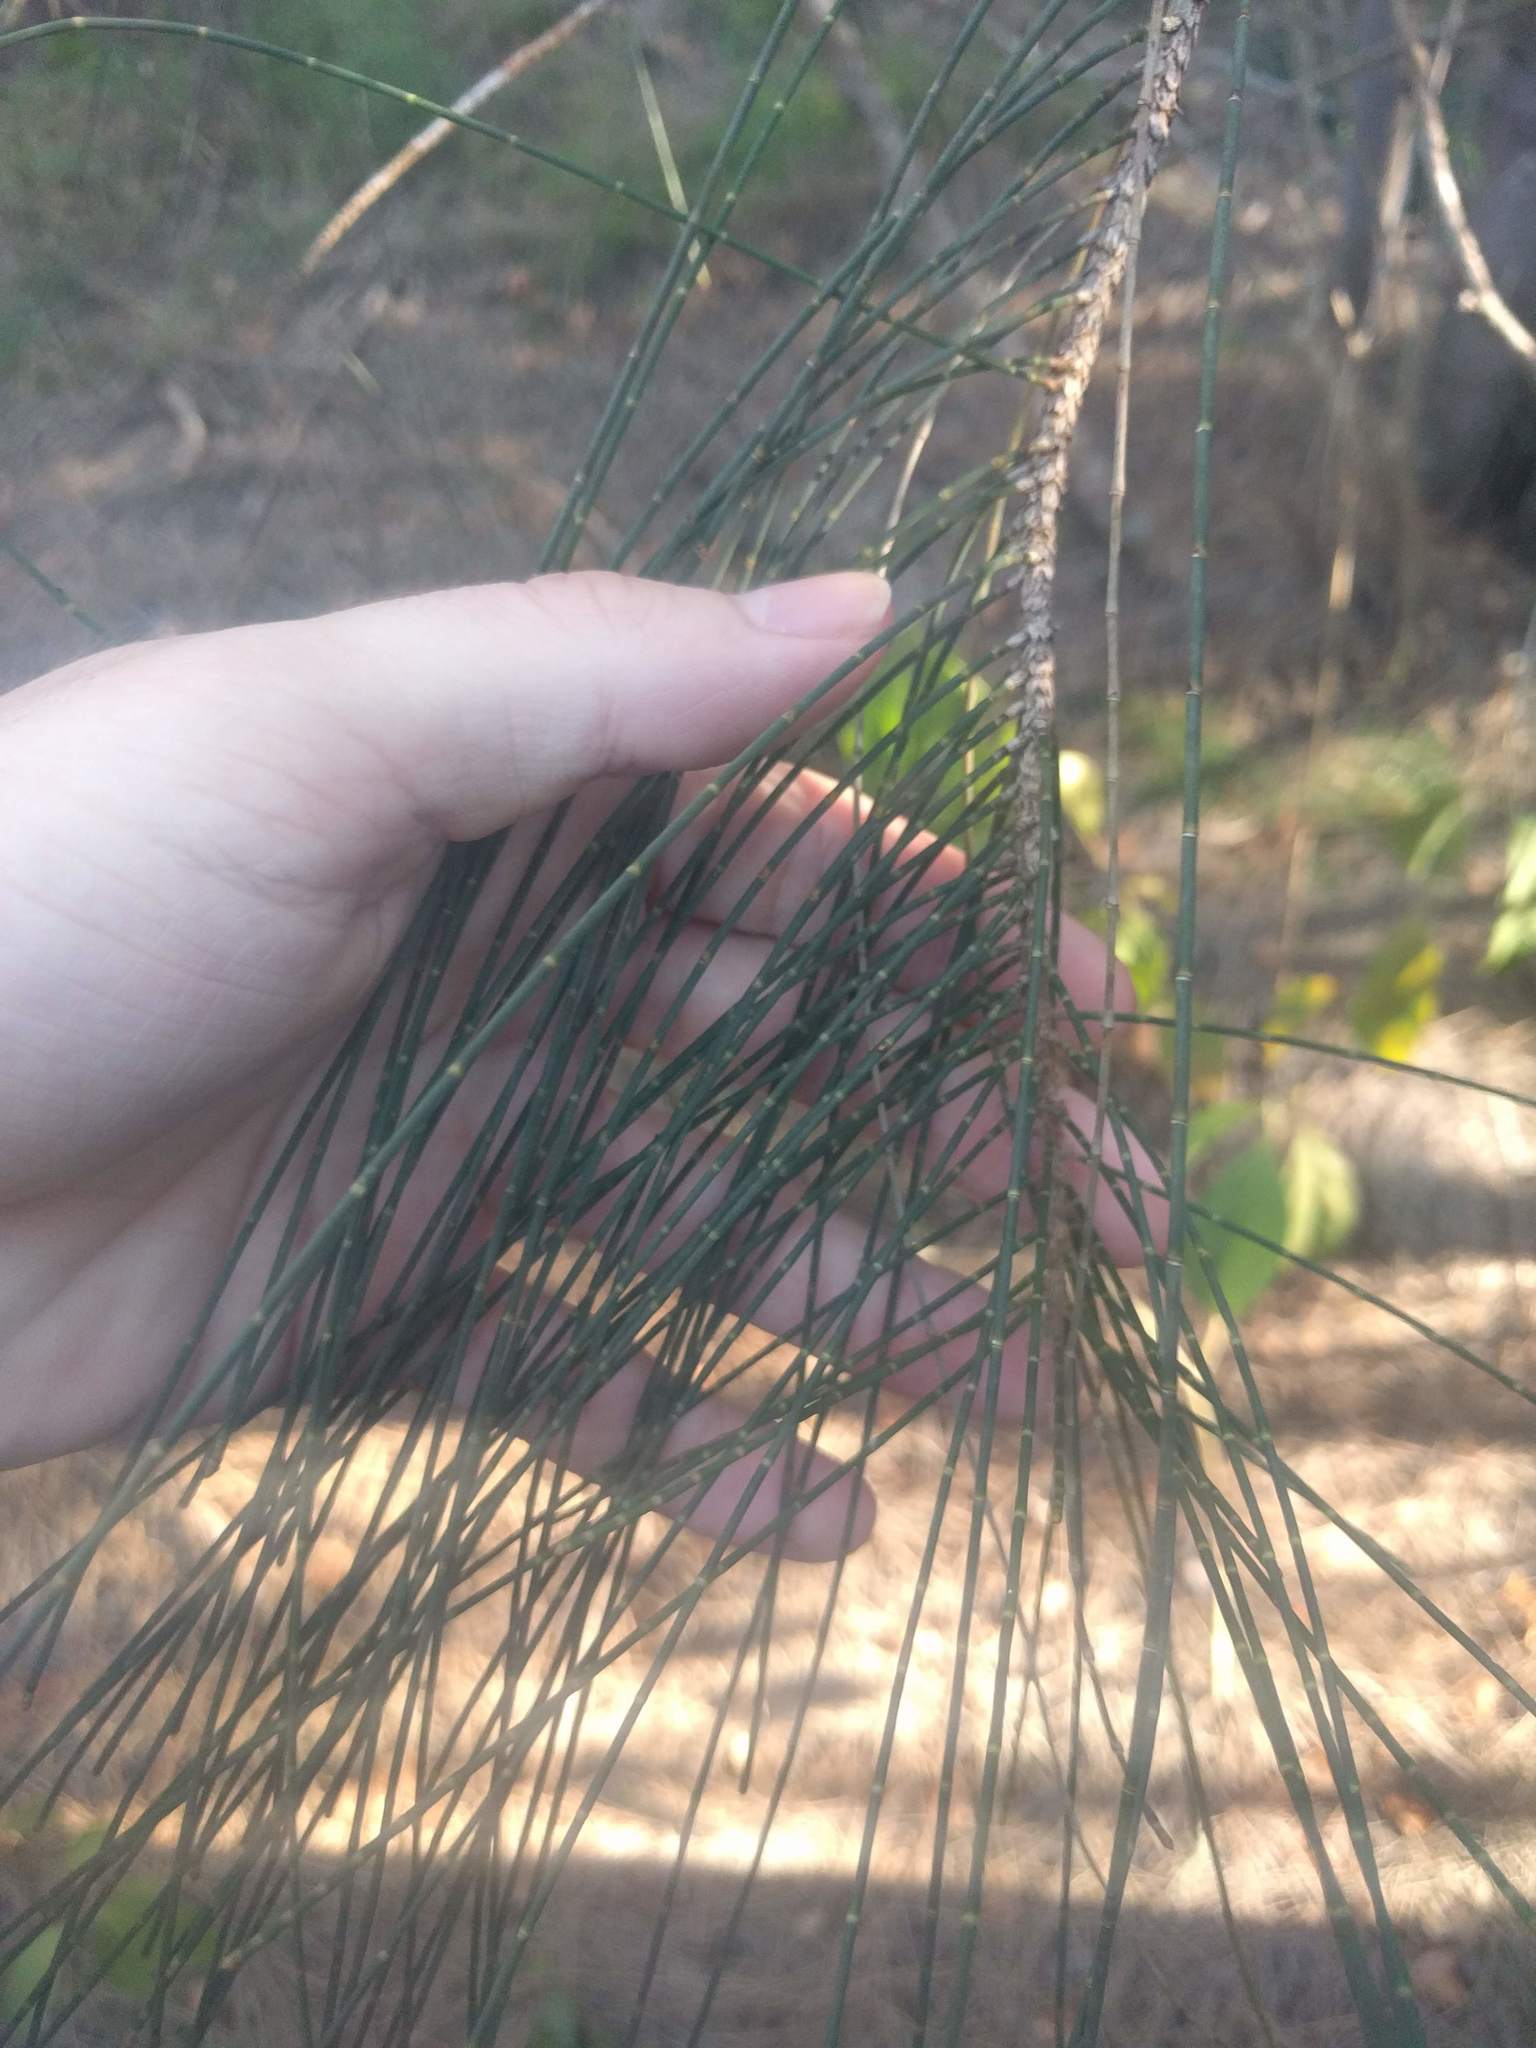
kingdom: Plantae
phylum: Tracheophyta
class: Magnoliopsida
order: Fagales
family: Casuarinaceae
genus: Casuarina
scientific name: Casuarina equisetifolia
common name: Beach sheoak
